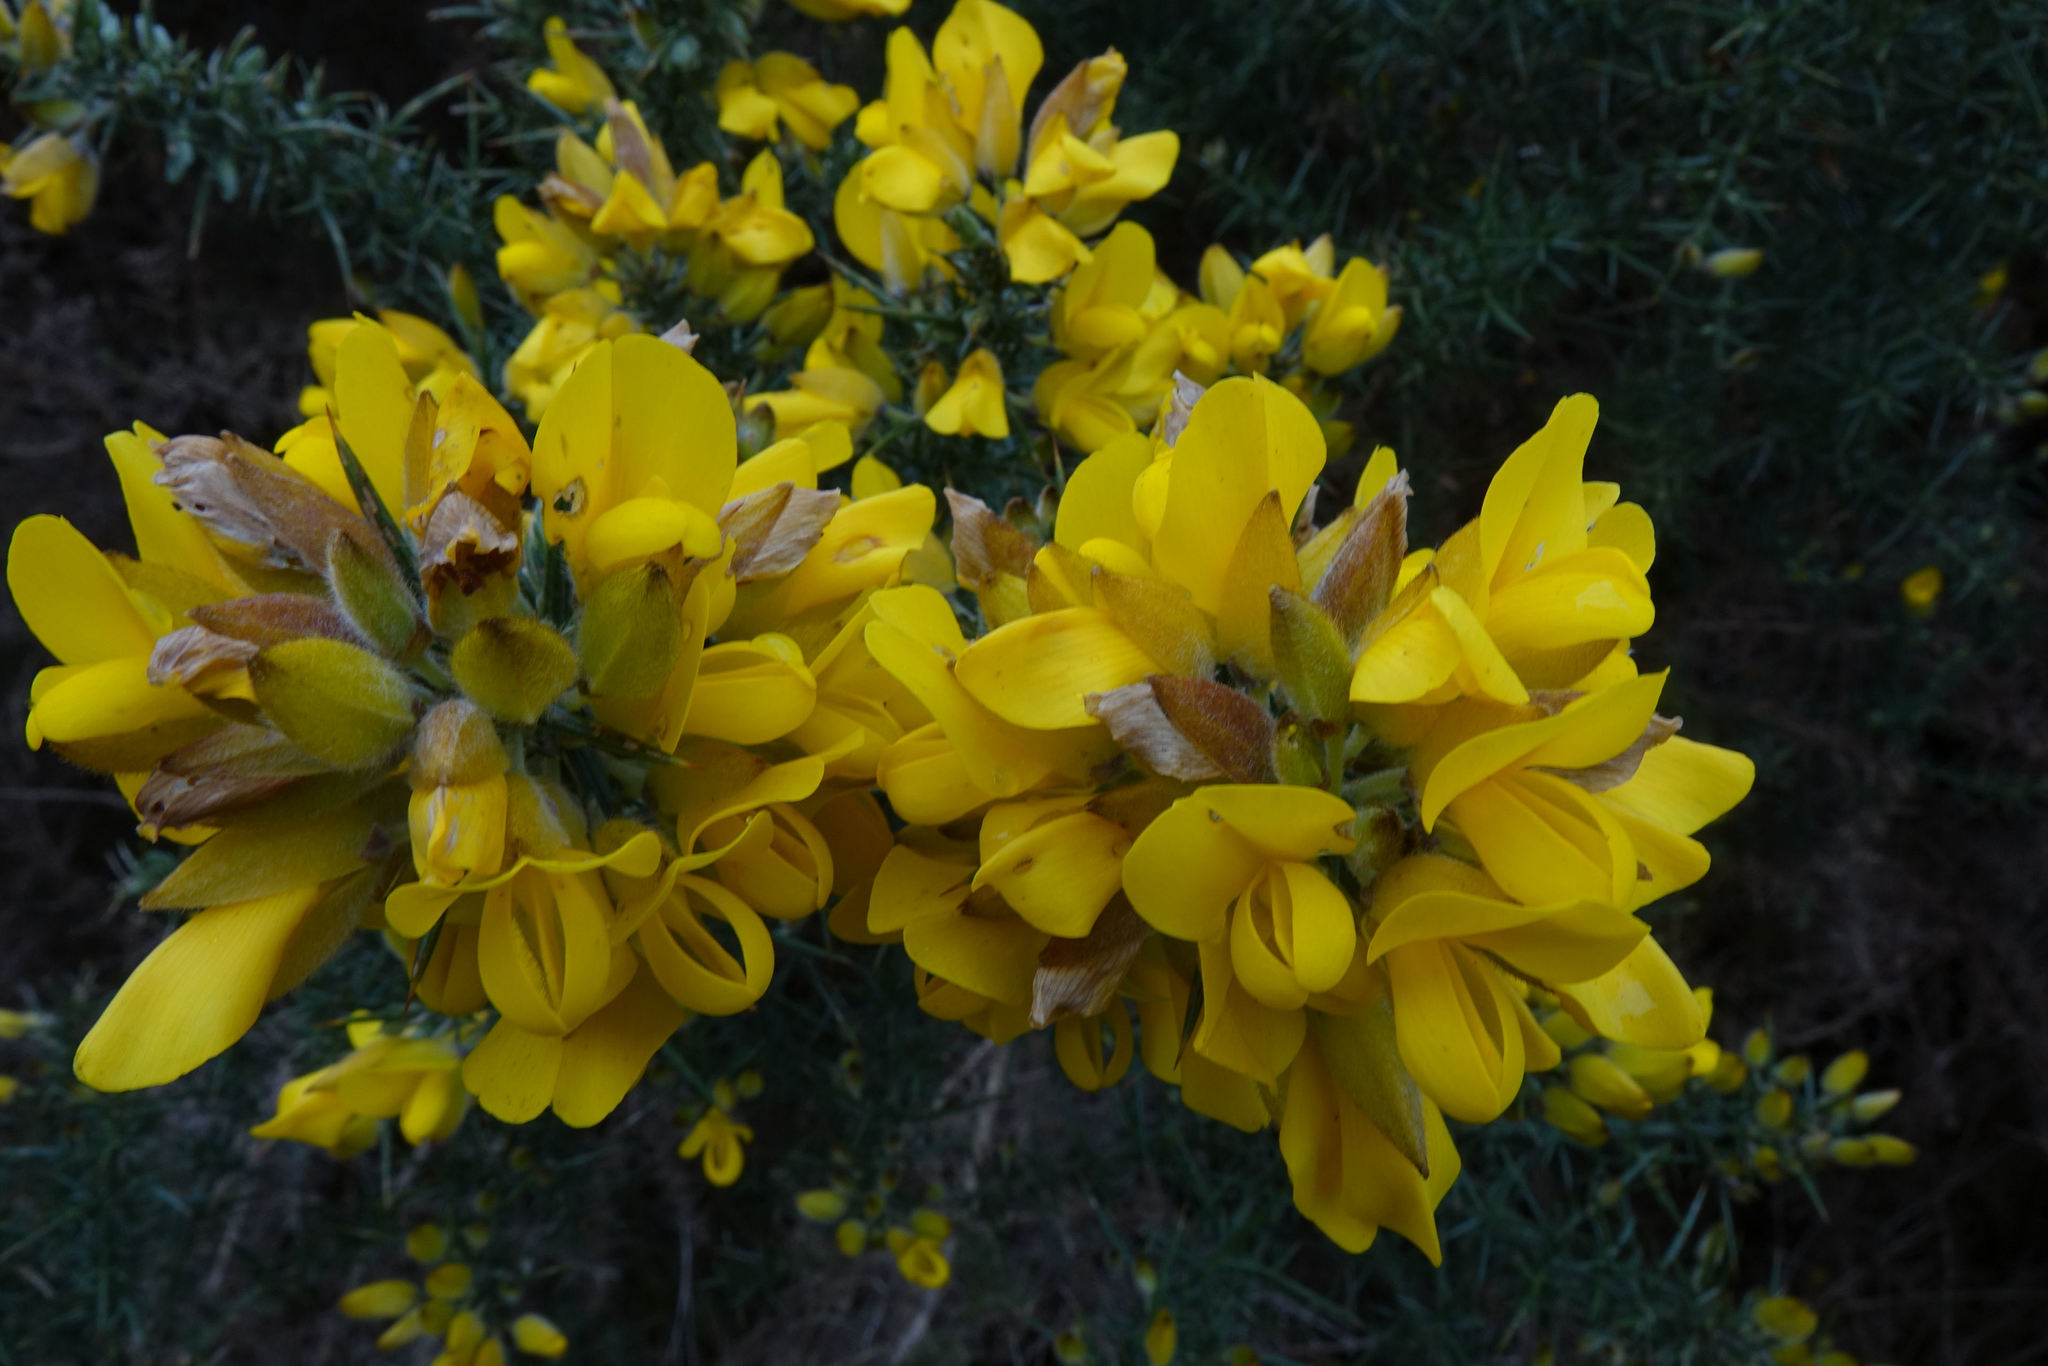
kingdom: Plantae
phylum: Tracheophyta
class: Magnoliopsida
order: Fabales
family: Fabaceae
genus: Ulex
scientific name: Ulex europaeus
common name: Common gorse
